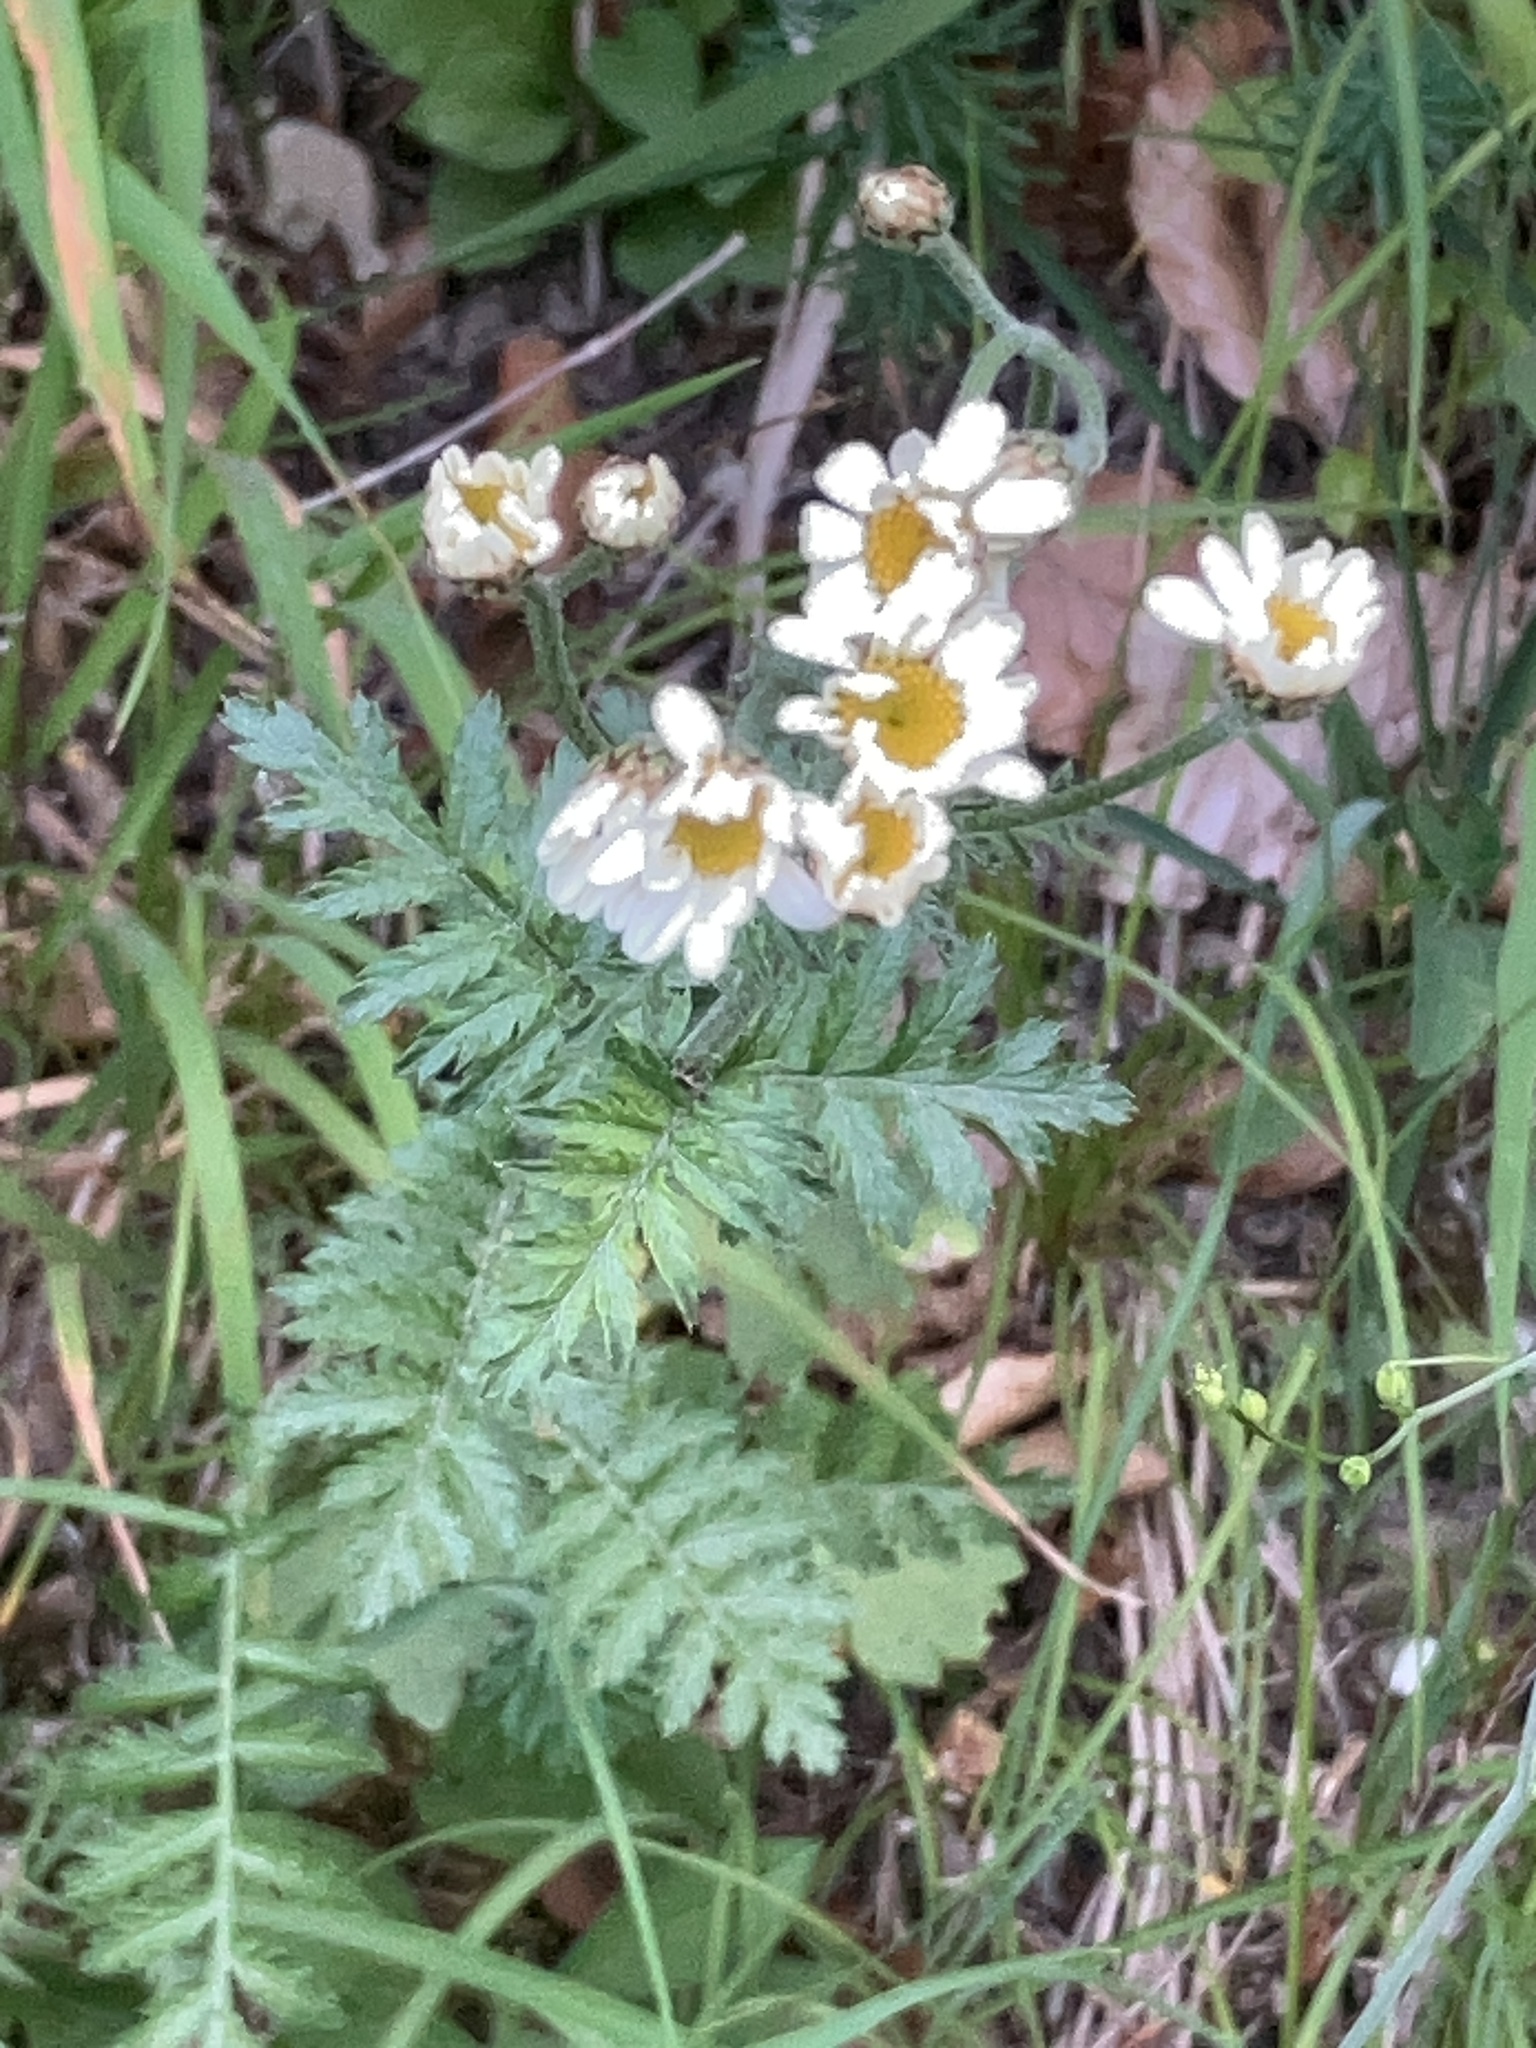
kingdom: Plantae
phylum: Tracheophyta
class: Magnoliopsida
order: Asterales
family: Asteraceae
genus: Tanacetum
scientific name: Tanacetum corymbosum
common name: Scentless feverfew
